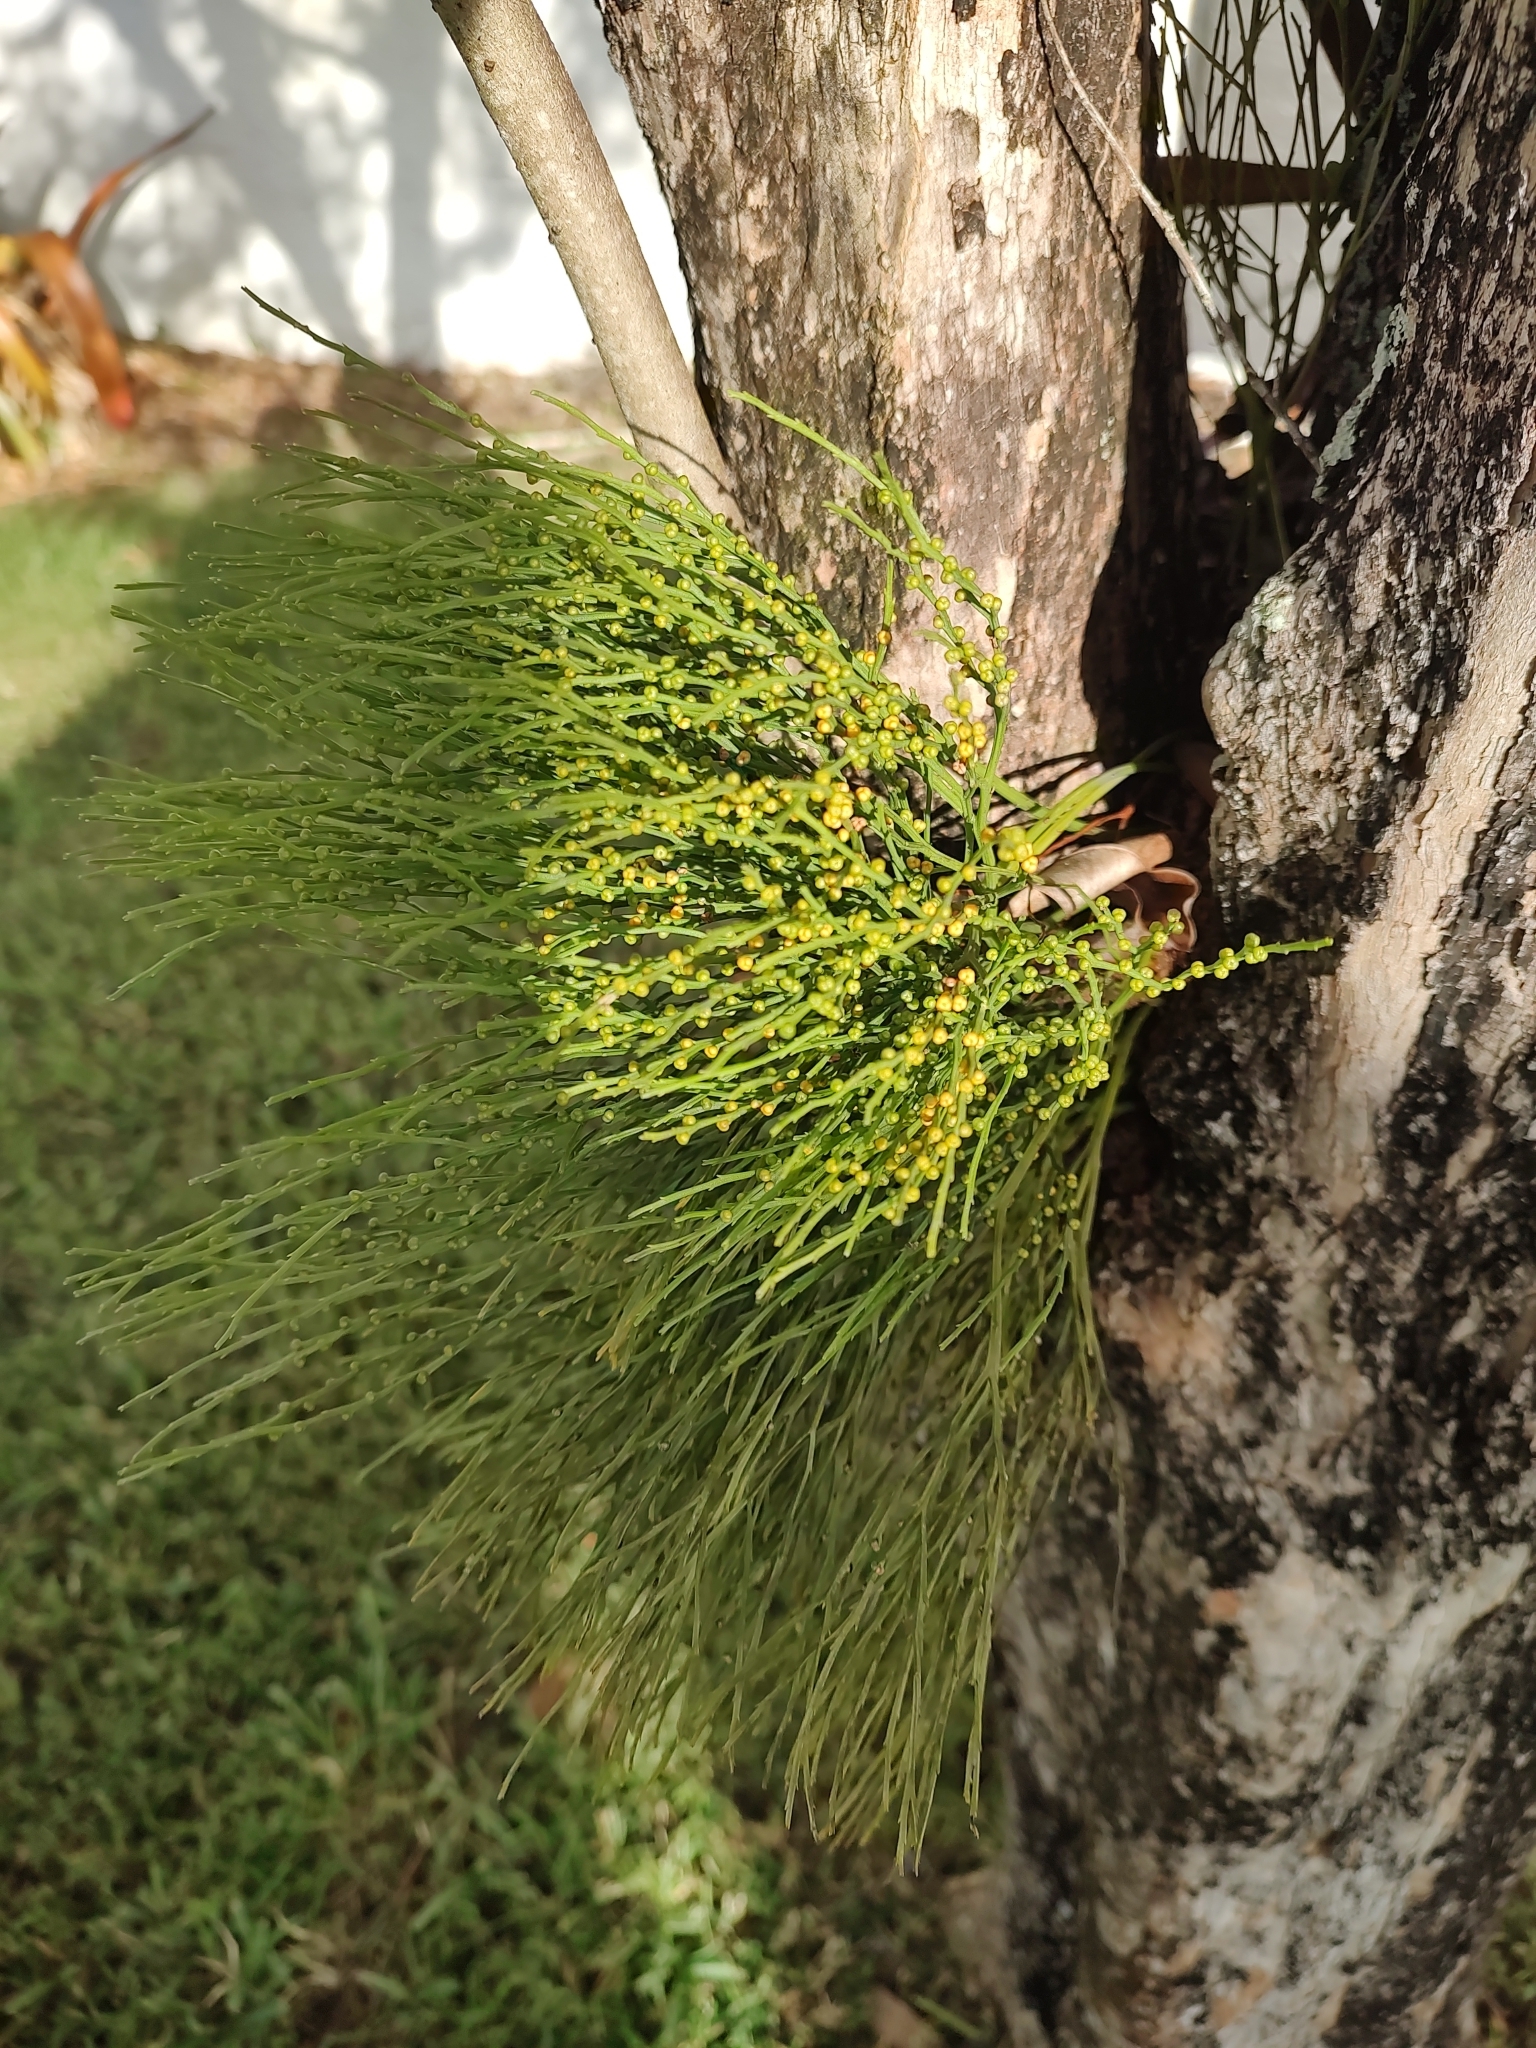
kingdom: Plantae
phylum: Tracheophyta
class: Polypodiopsida
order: Psilotales
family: Psilotaceae
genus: Psilotum
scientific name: Psilotum nudum
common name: Skeleton fork fern
